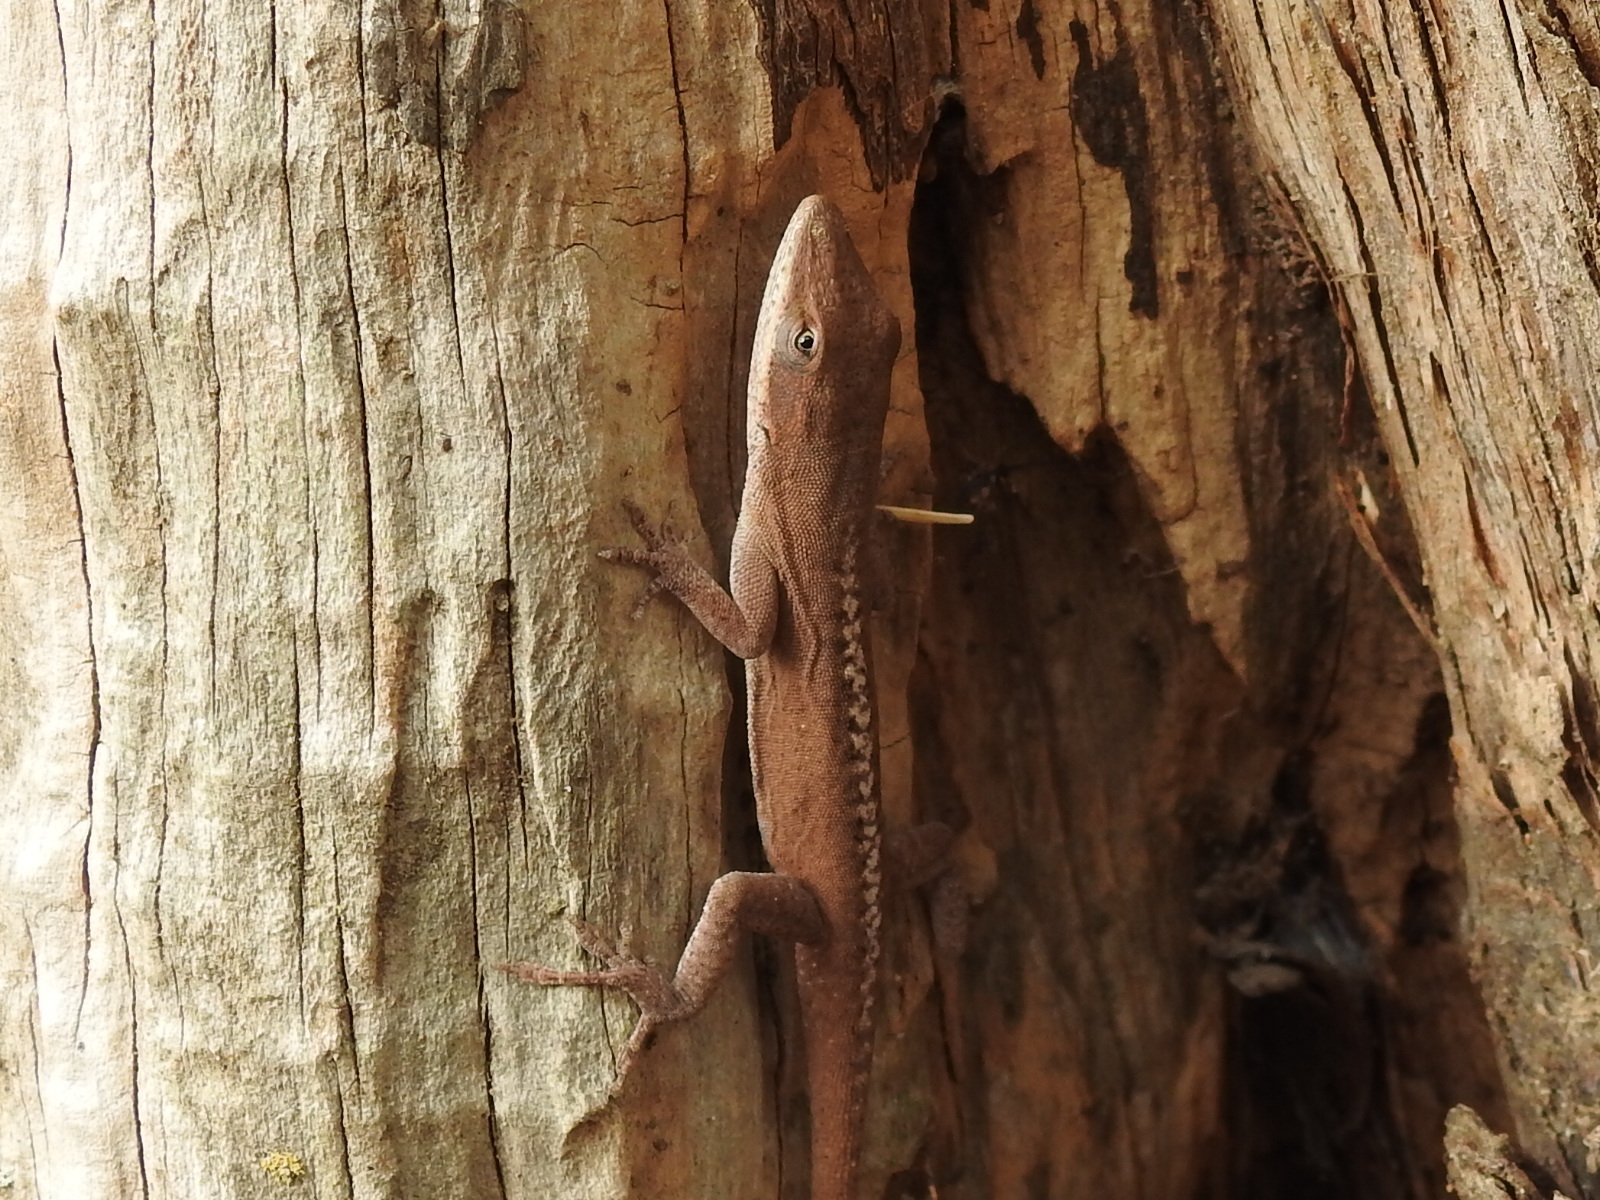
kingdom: Animalia
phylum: Chordata
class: Squamata
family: Dactyloidae
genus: Anolis
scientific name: Anolis carolinensis
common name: Green anole
